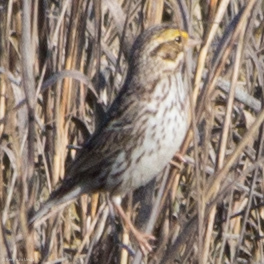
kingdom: Animalia
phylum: Chordata
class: Aves
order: Passeriformes
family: Passerellidae
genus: Passerculus
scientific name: Passerculus sandwichensis
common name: Savannah sparrow
